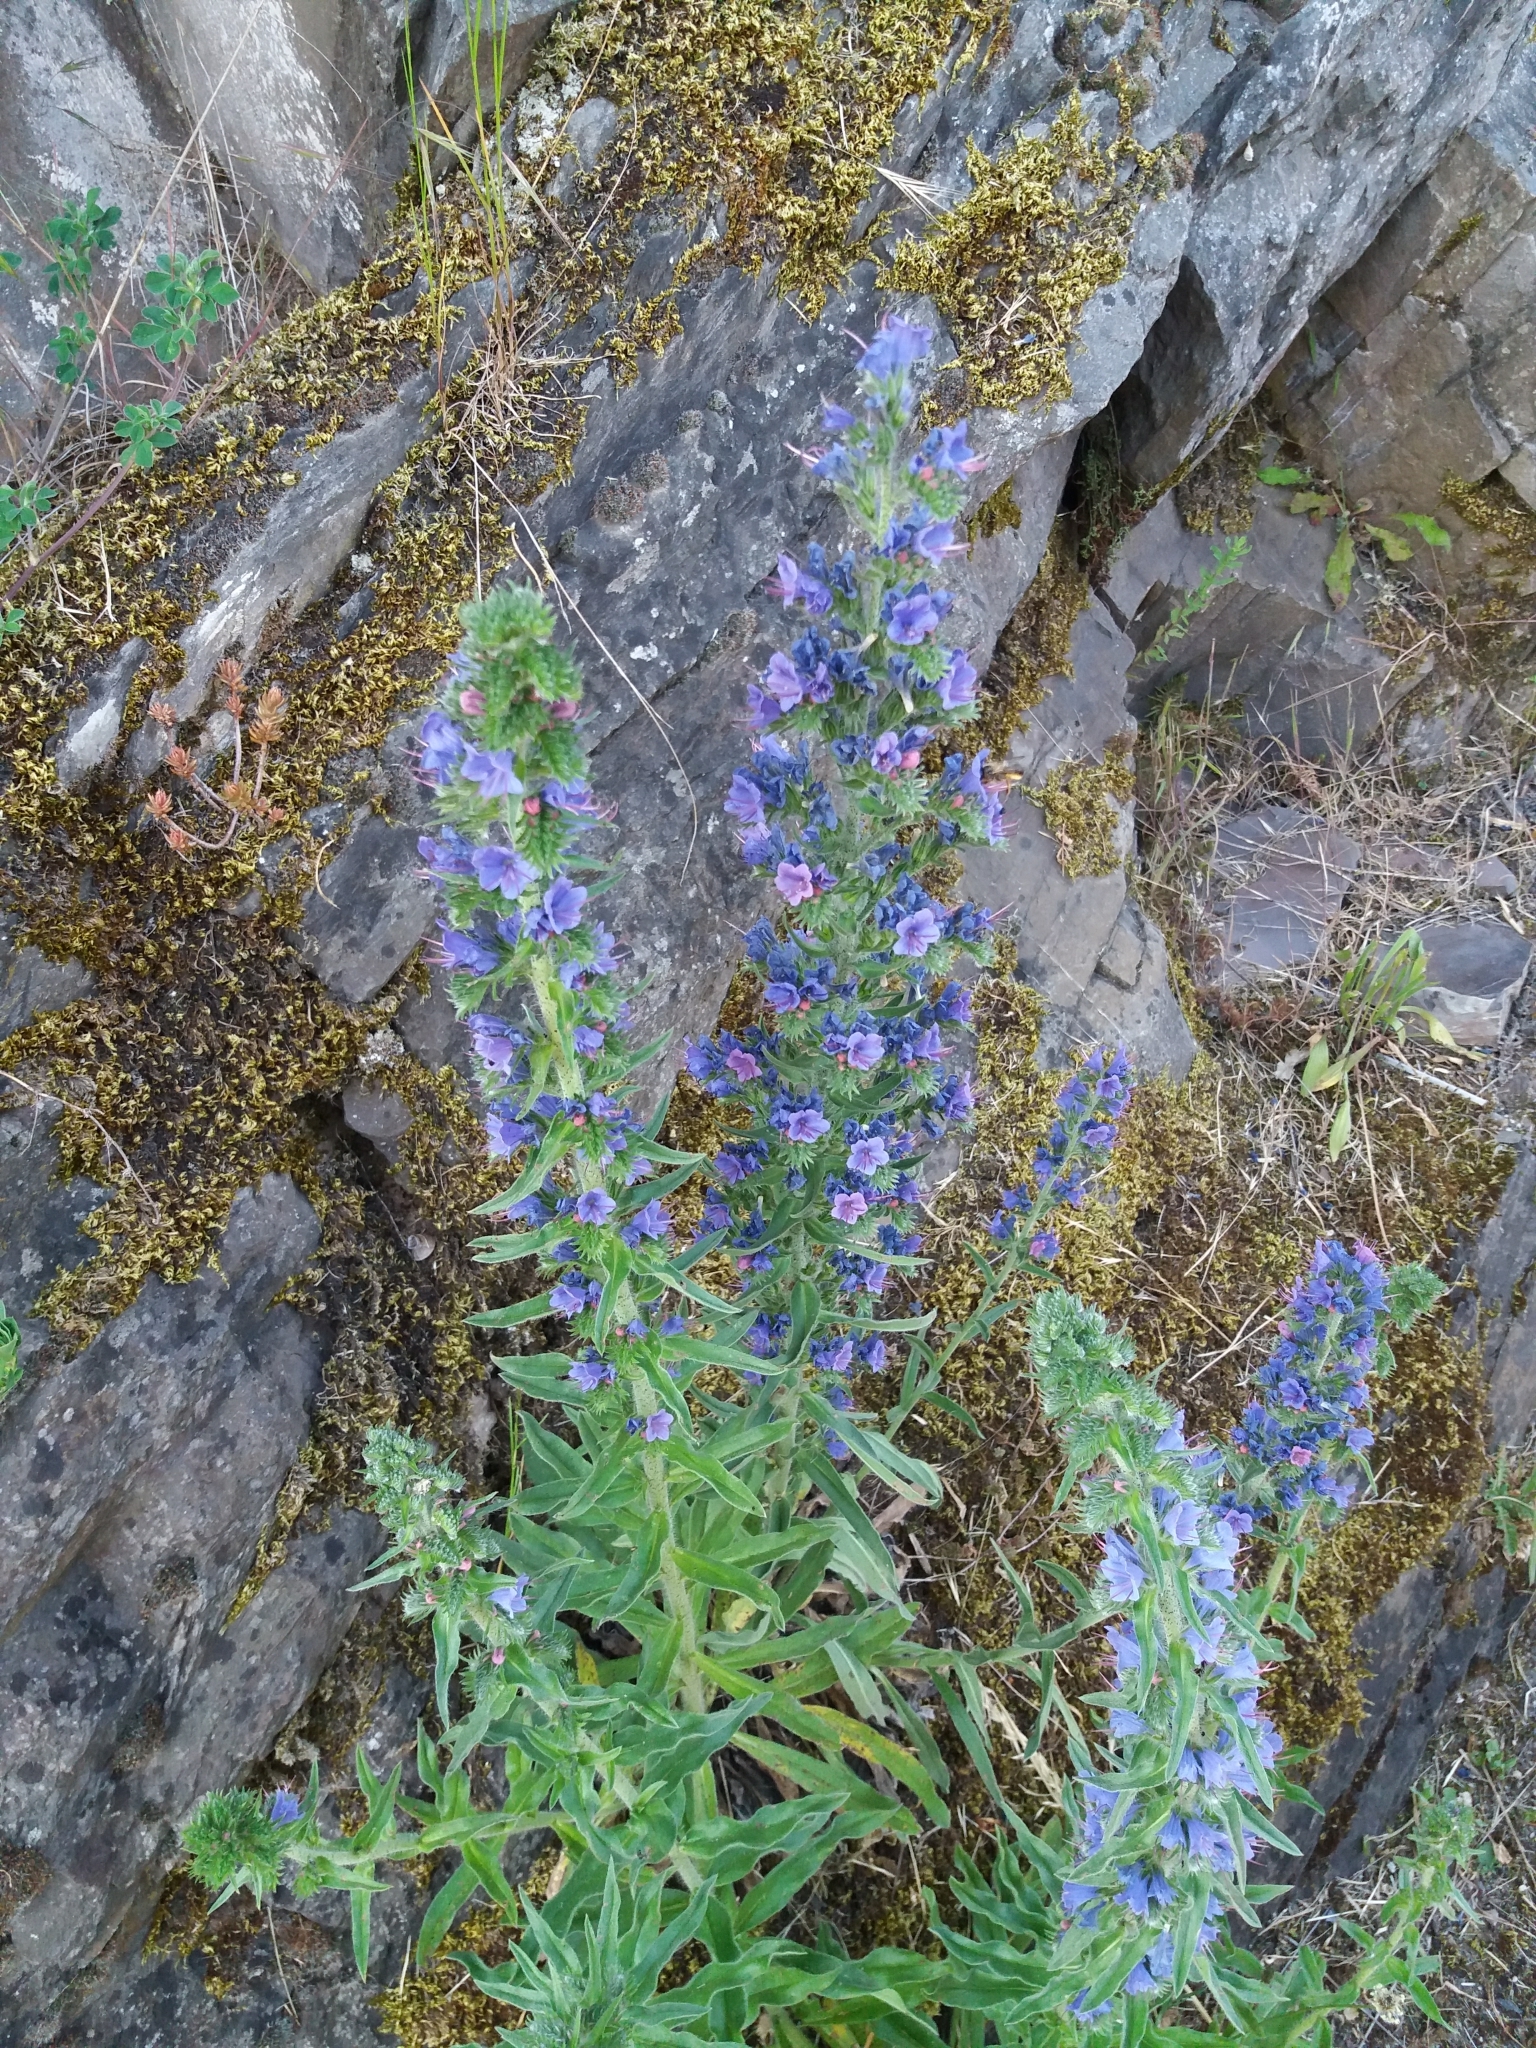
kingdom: Plantae
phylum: Tracheophyta
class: Magnoliopsida
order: Boraginales
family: Boraginaceae
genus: Echium
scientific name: Echium vulgare
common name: Common viper's bugloss
